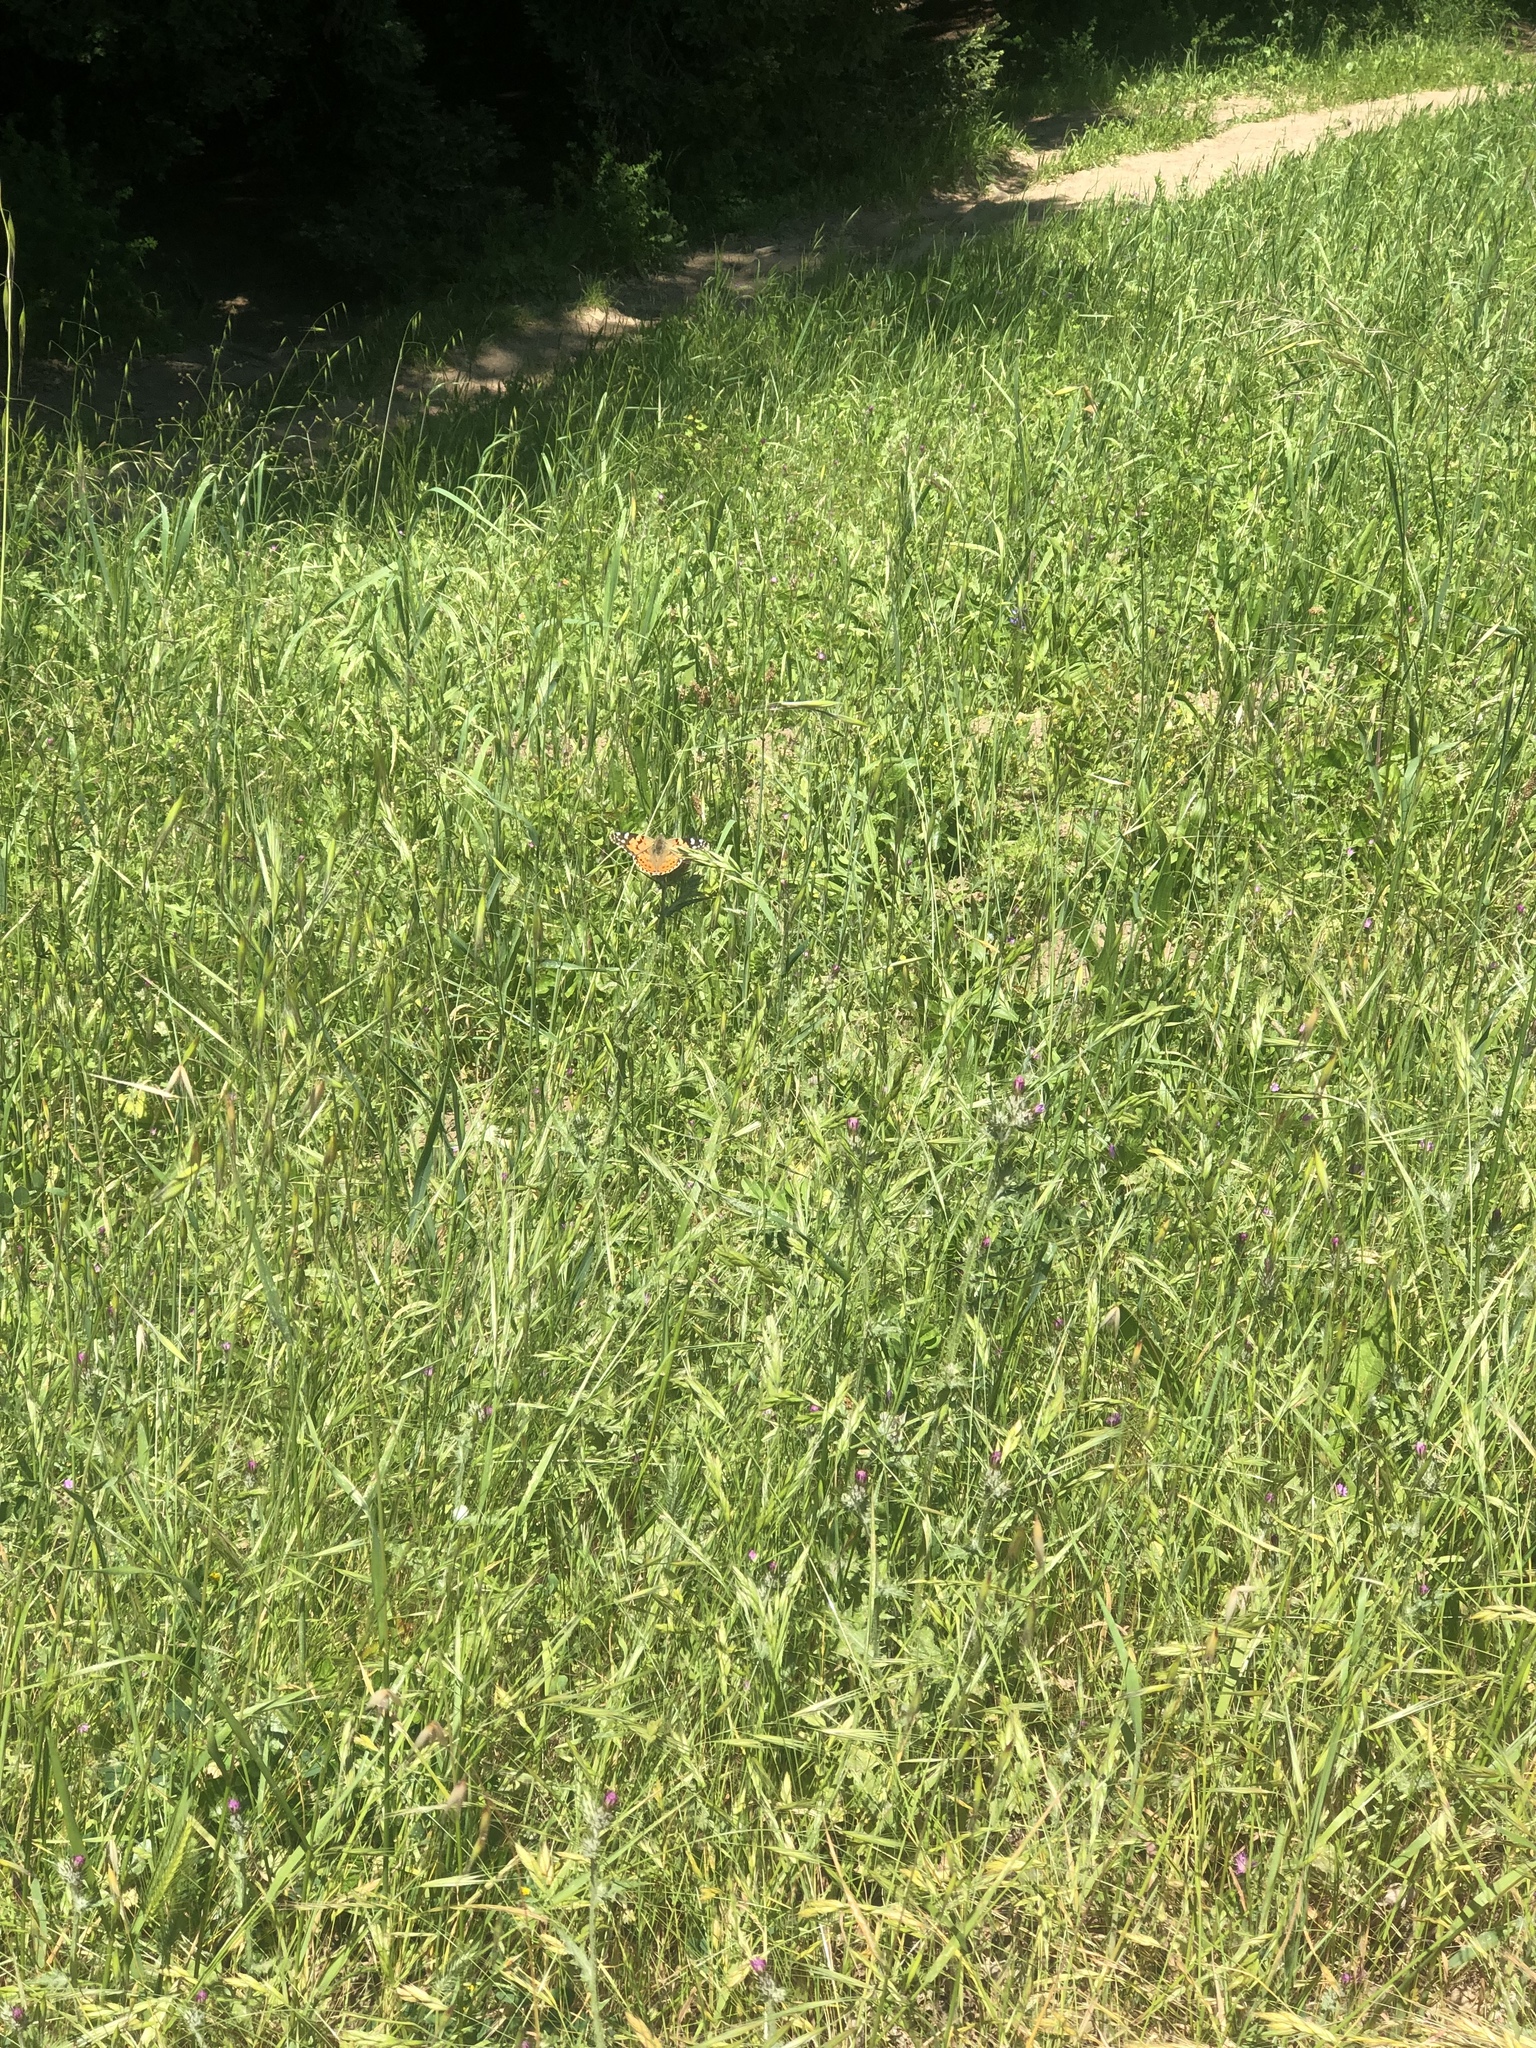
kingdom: Animalia
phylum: Arthropoda
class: Insecta
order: Lepidoptera
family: Nymphalidae
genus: Vanessa
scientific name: Vanessa cardui
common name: Painted lady
